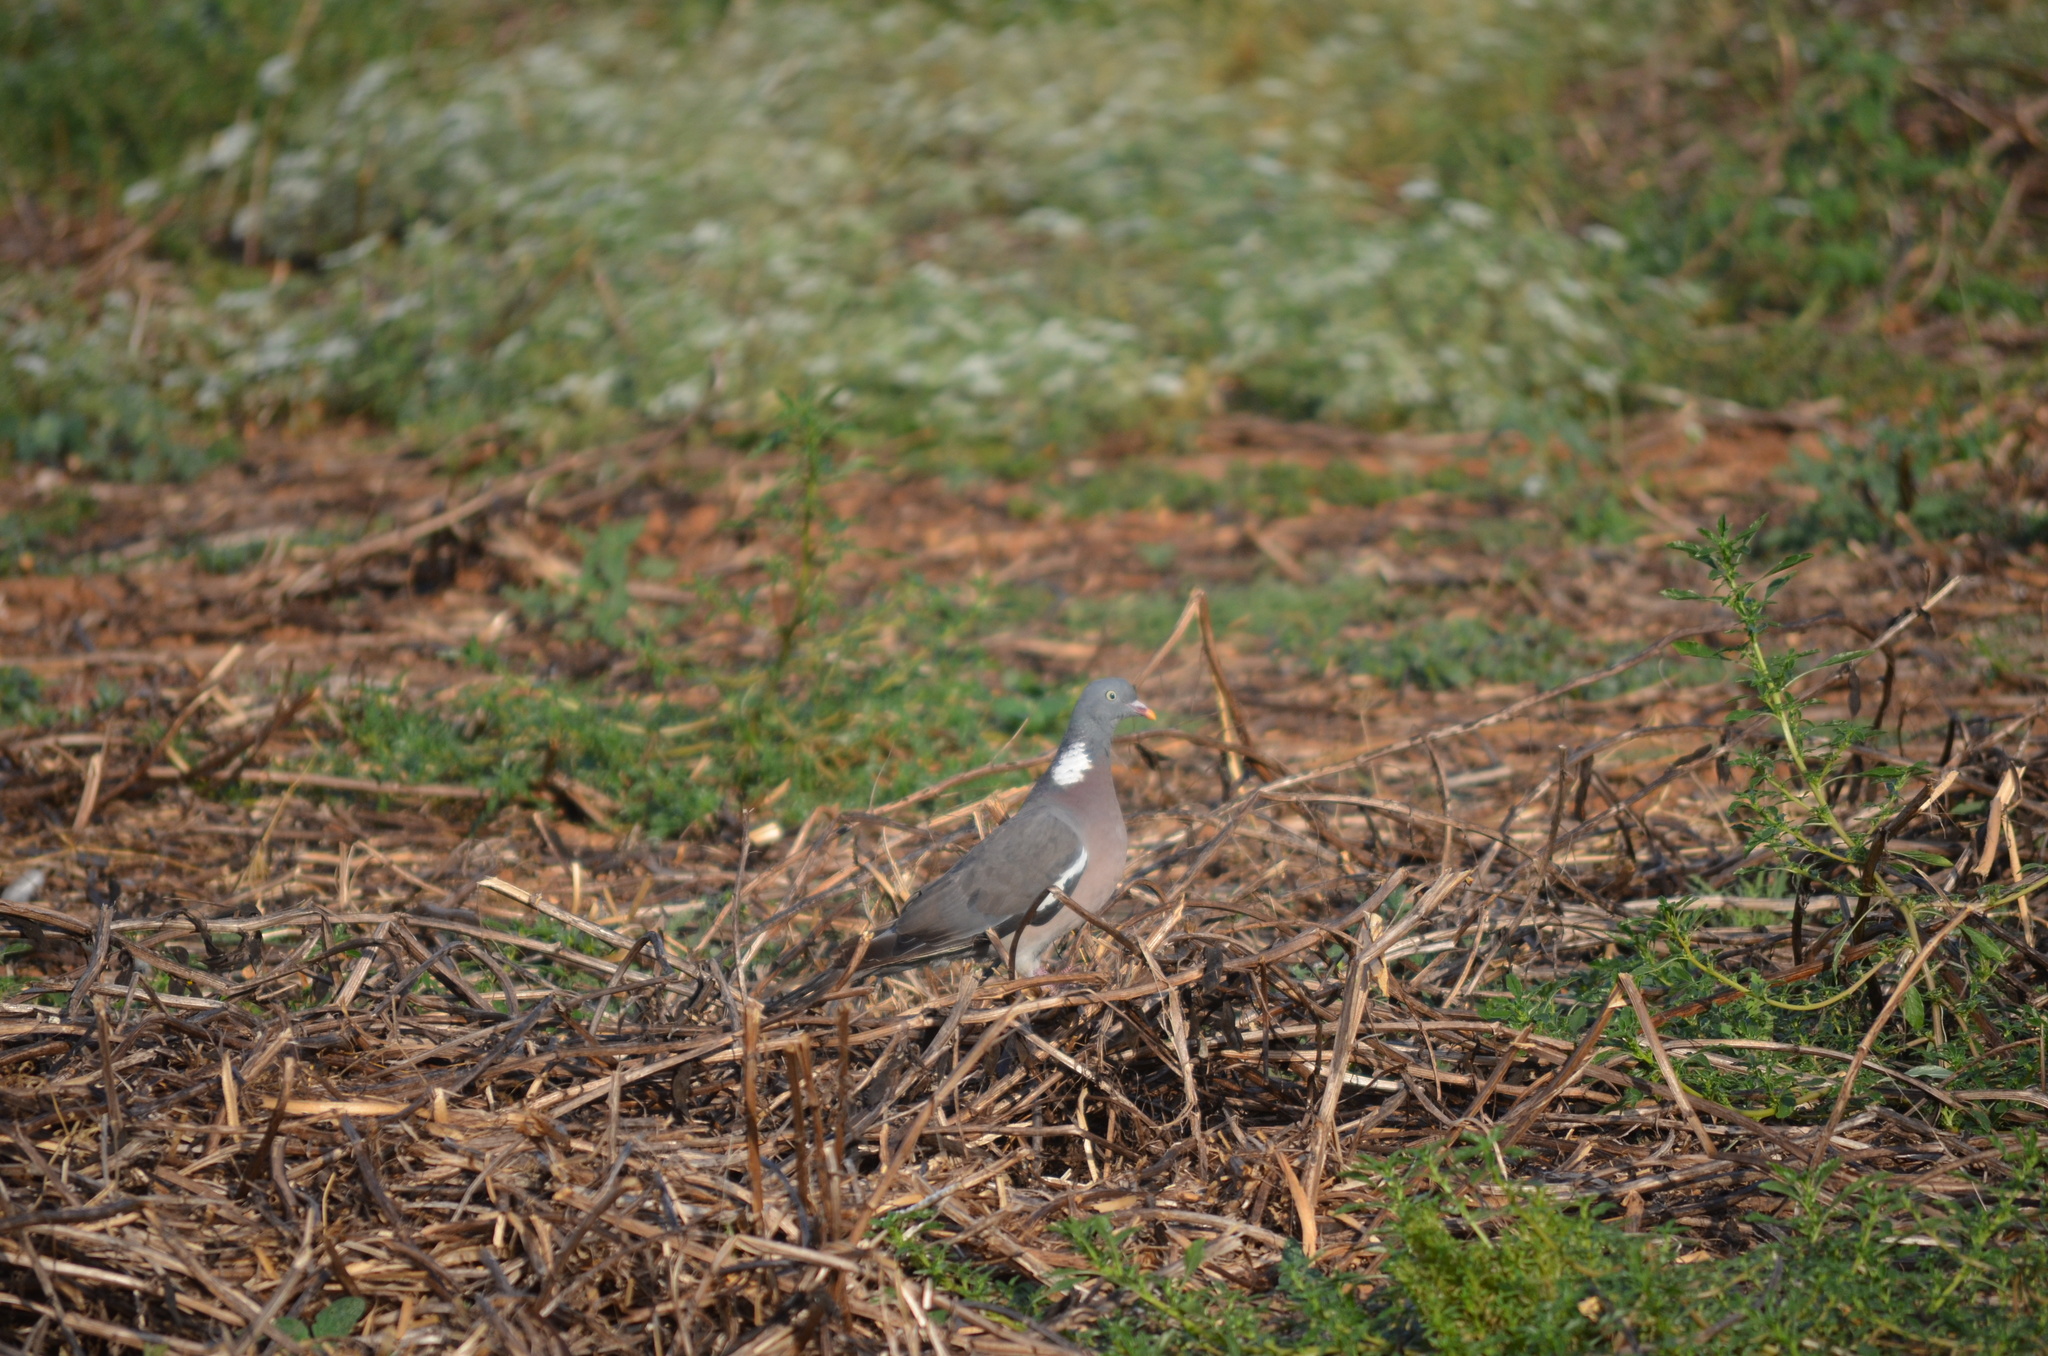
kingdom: Animalia
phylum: Chordata
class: Aves
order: Columbiformes
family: Columbidae
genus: Columba
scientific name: Columba palumbus
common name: Common wood pigeon
